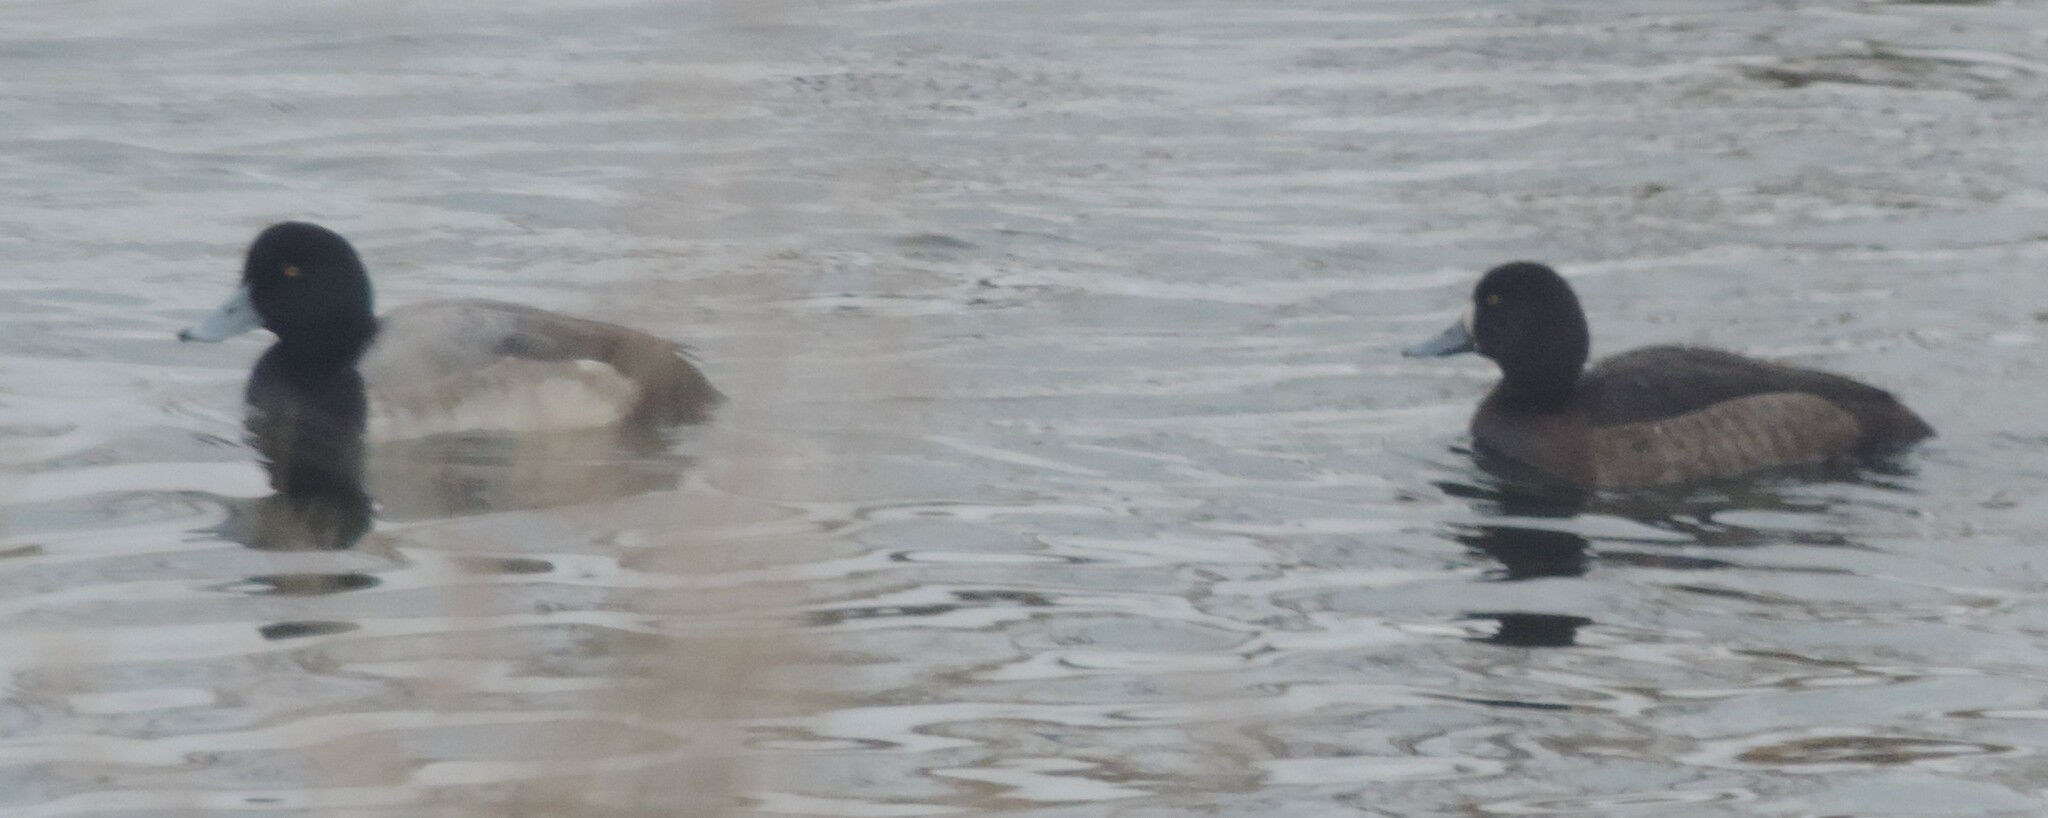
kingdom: Animalia
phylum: Chordata
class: Aves
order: Anseriformes
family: Anatidae
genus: Aythya
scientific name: Aythya marila
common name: Greater scaup
